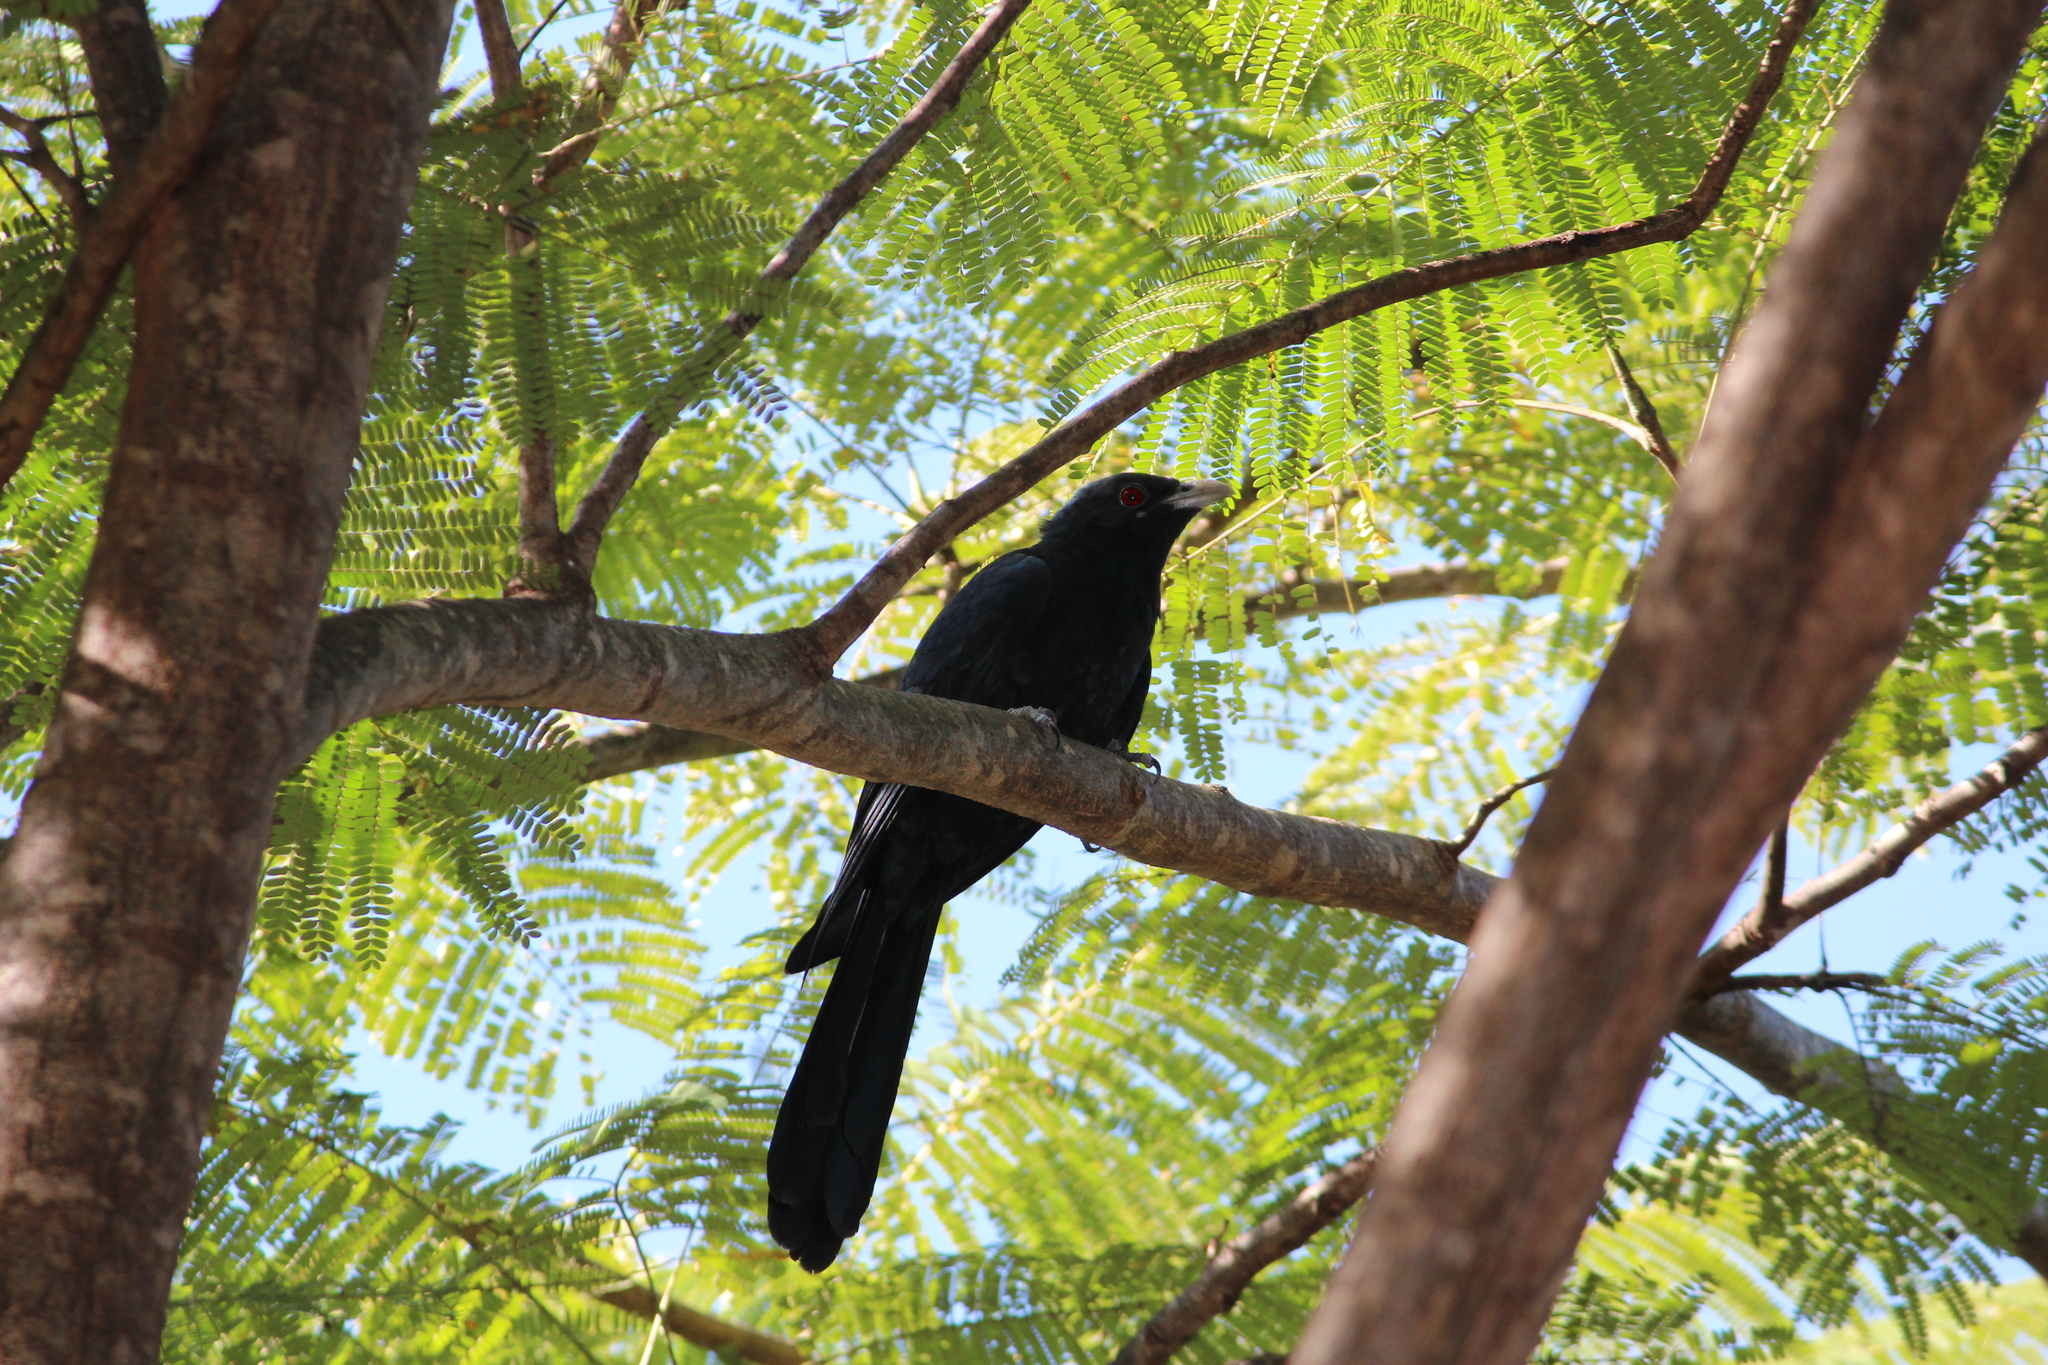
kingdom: Animalia
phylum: Chordata
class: Aves
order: Cuculiformes
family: Cuculidae
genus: Eudynamys
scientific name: Eudynamys scolopaceus
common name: Asian koel
